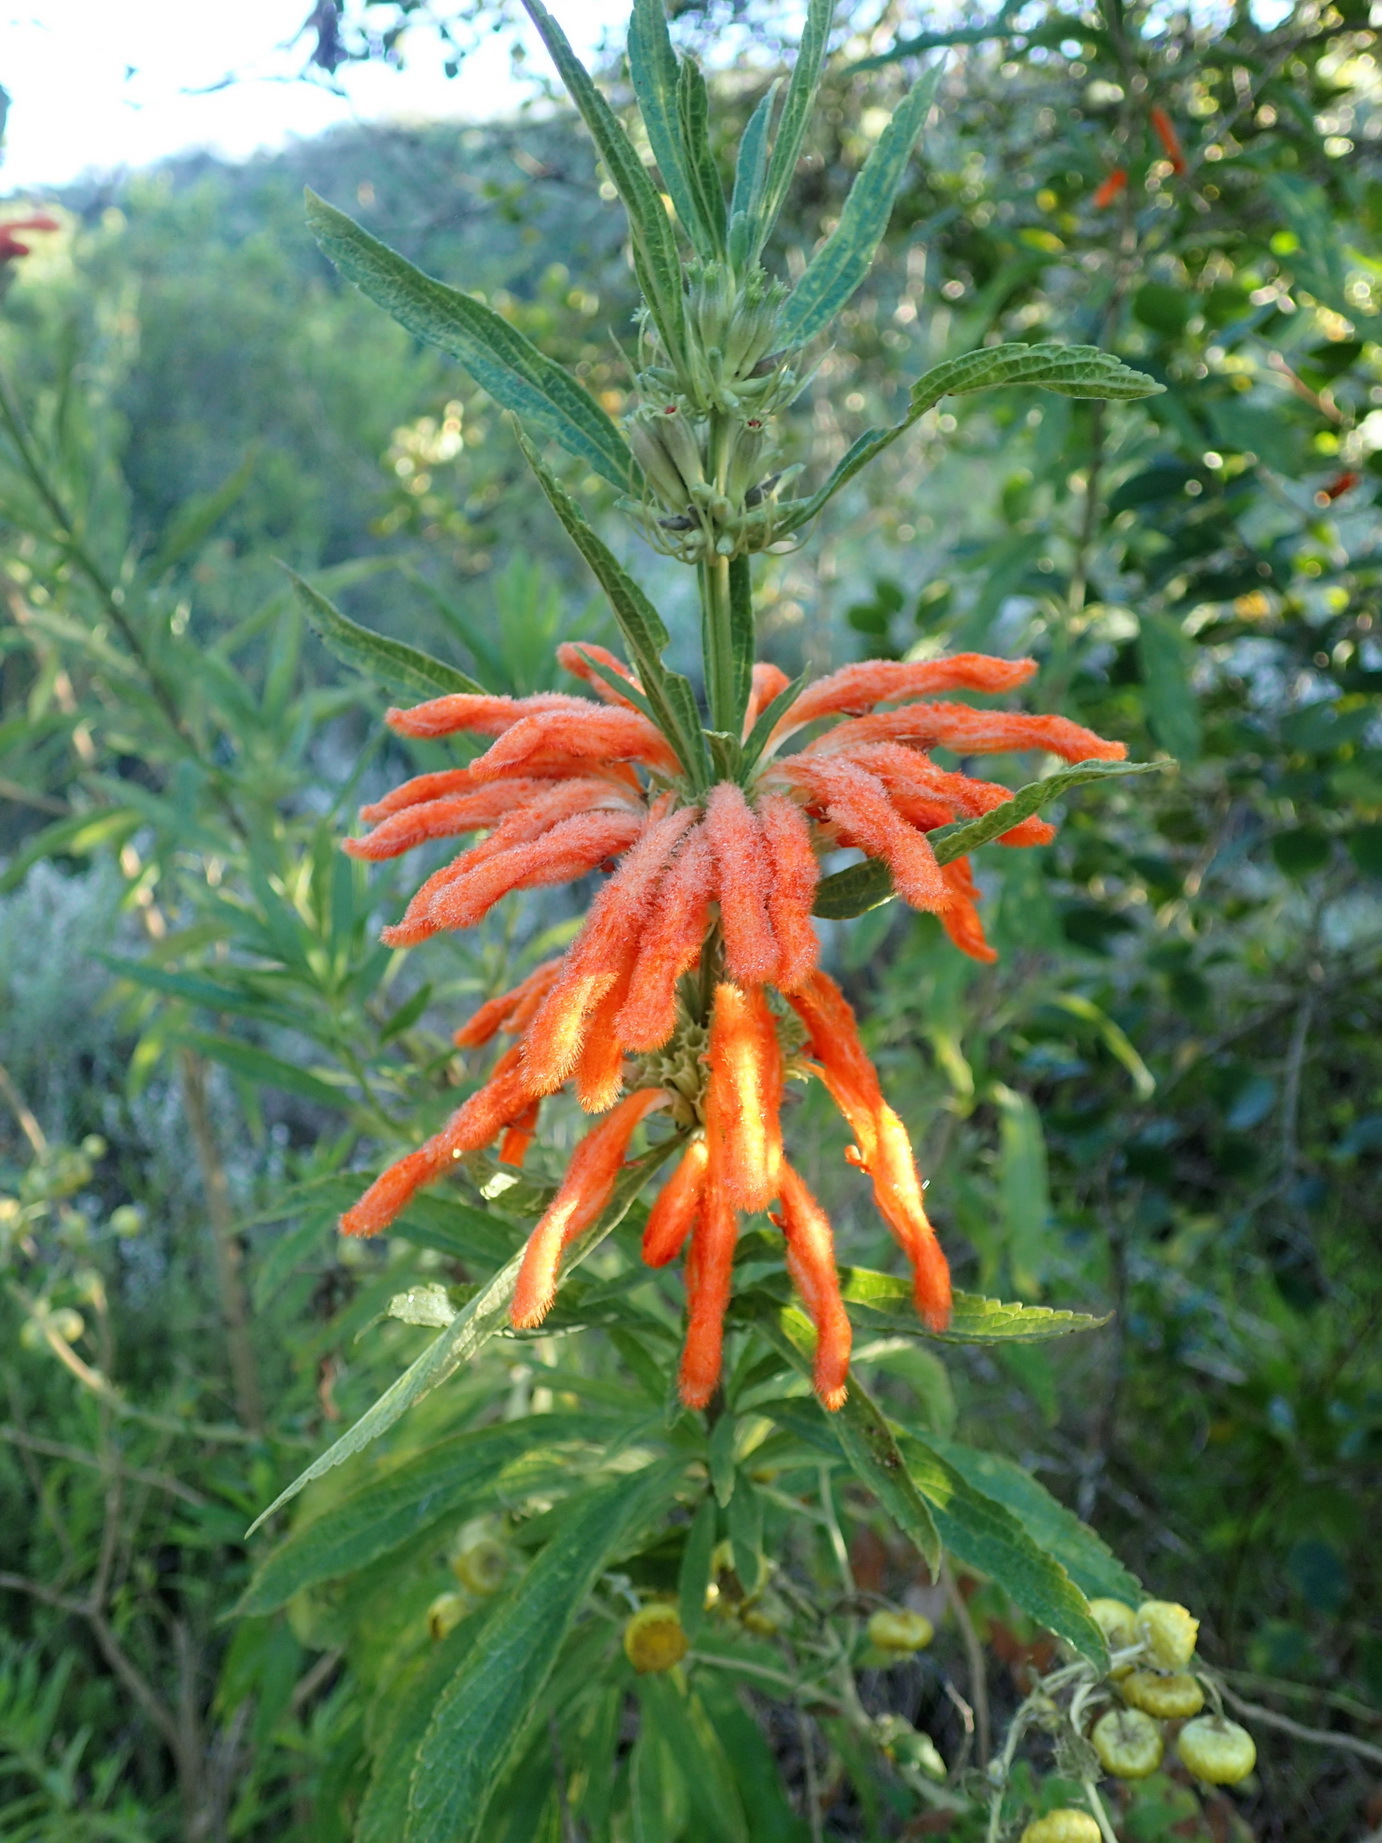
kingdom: Plantae
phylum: Tracheophyta
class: Magnoliopsida
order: Lamiales
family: Lamiaceae
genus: Leonotis
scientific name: Leonotis leonurus
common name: Lion's ear
